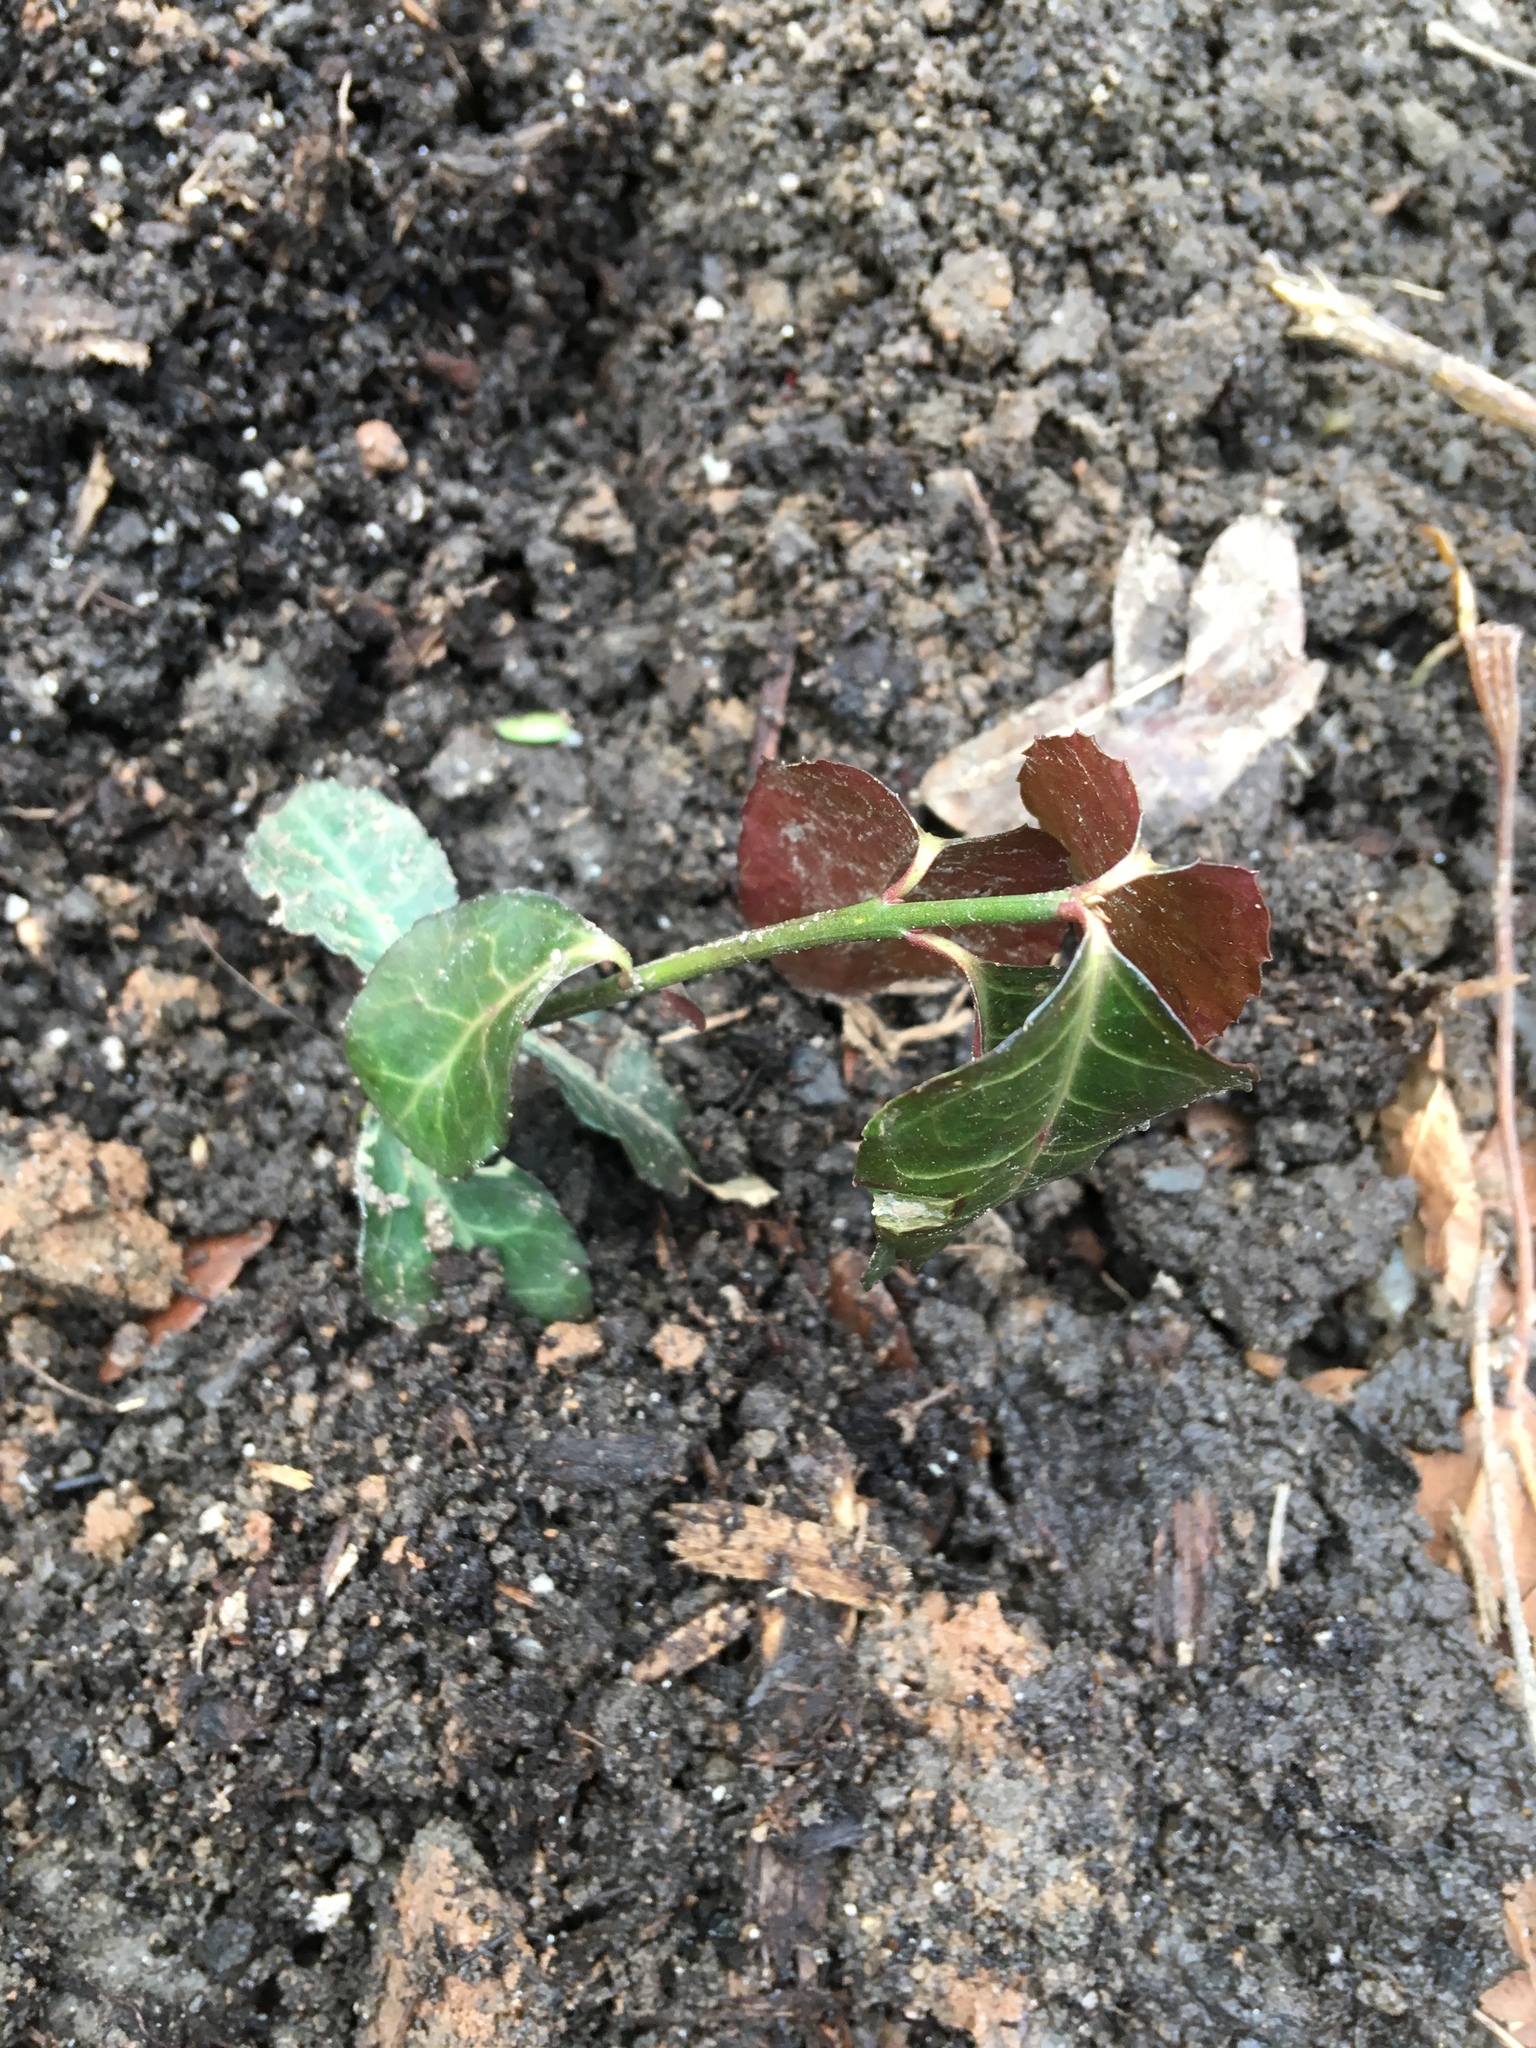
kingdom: Plantae
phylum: Tracheophyta
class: Magnoliopsida
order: Celastrales
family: Celastraceae
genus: Euonymus
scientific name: Euonymus fortunei
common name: Climbing euonymus
